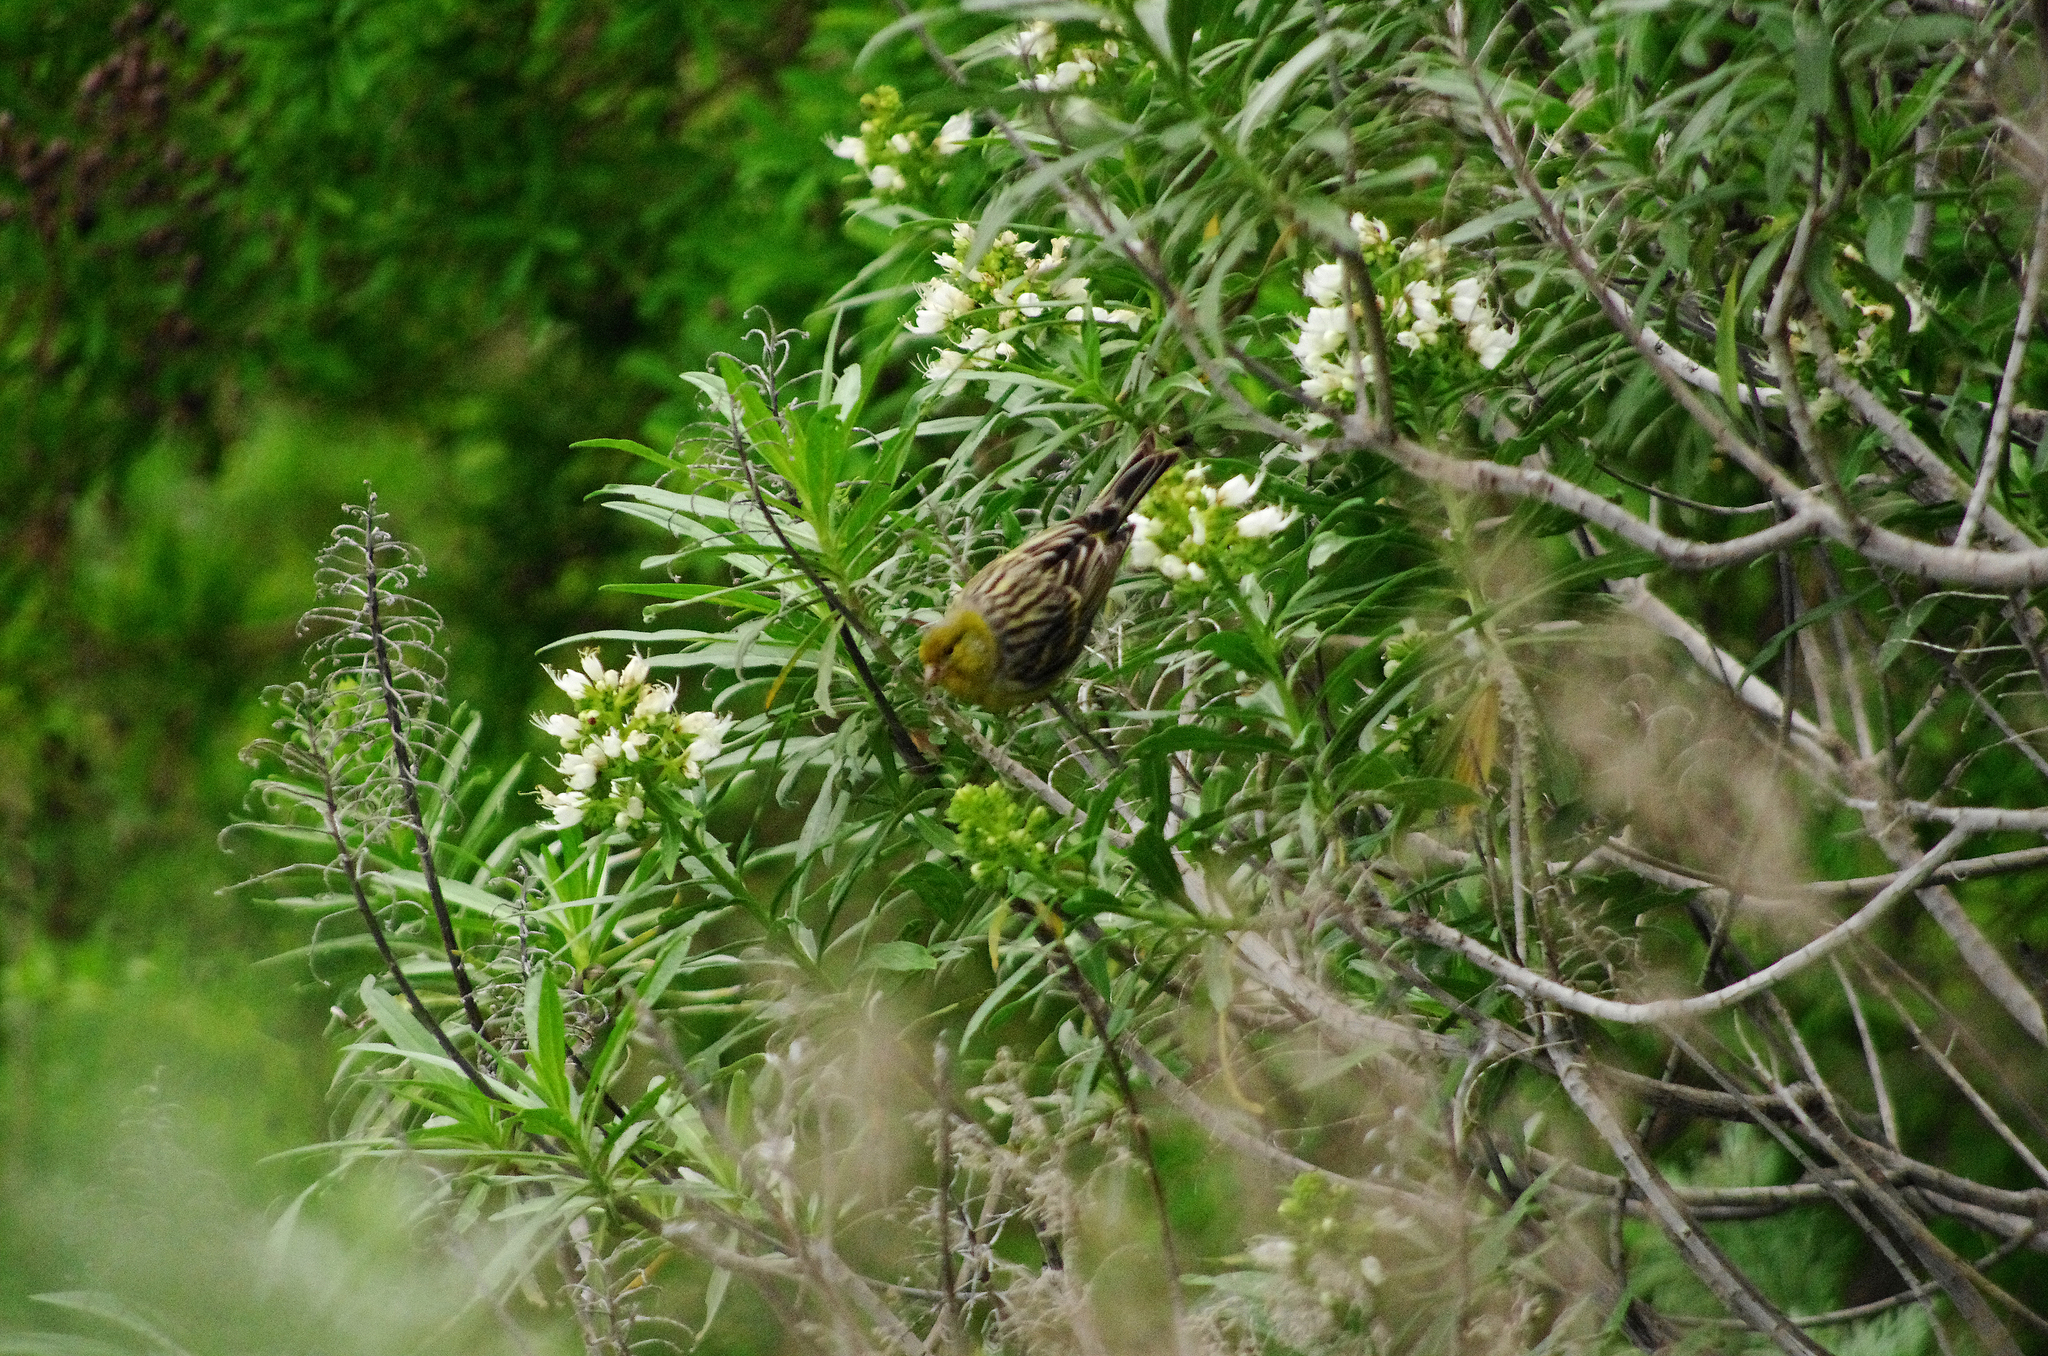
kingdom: Animalia
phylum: Chordata
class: Aves
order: Passeriformes
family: Fringillidae
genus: Serinus
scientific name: Serinus canaria
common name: Atlantic canary
